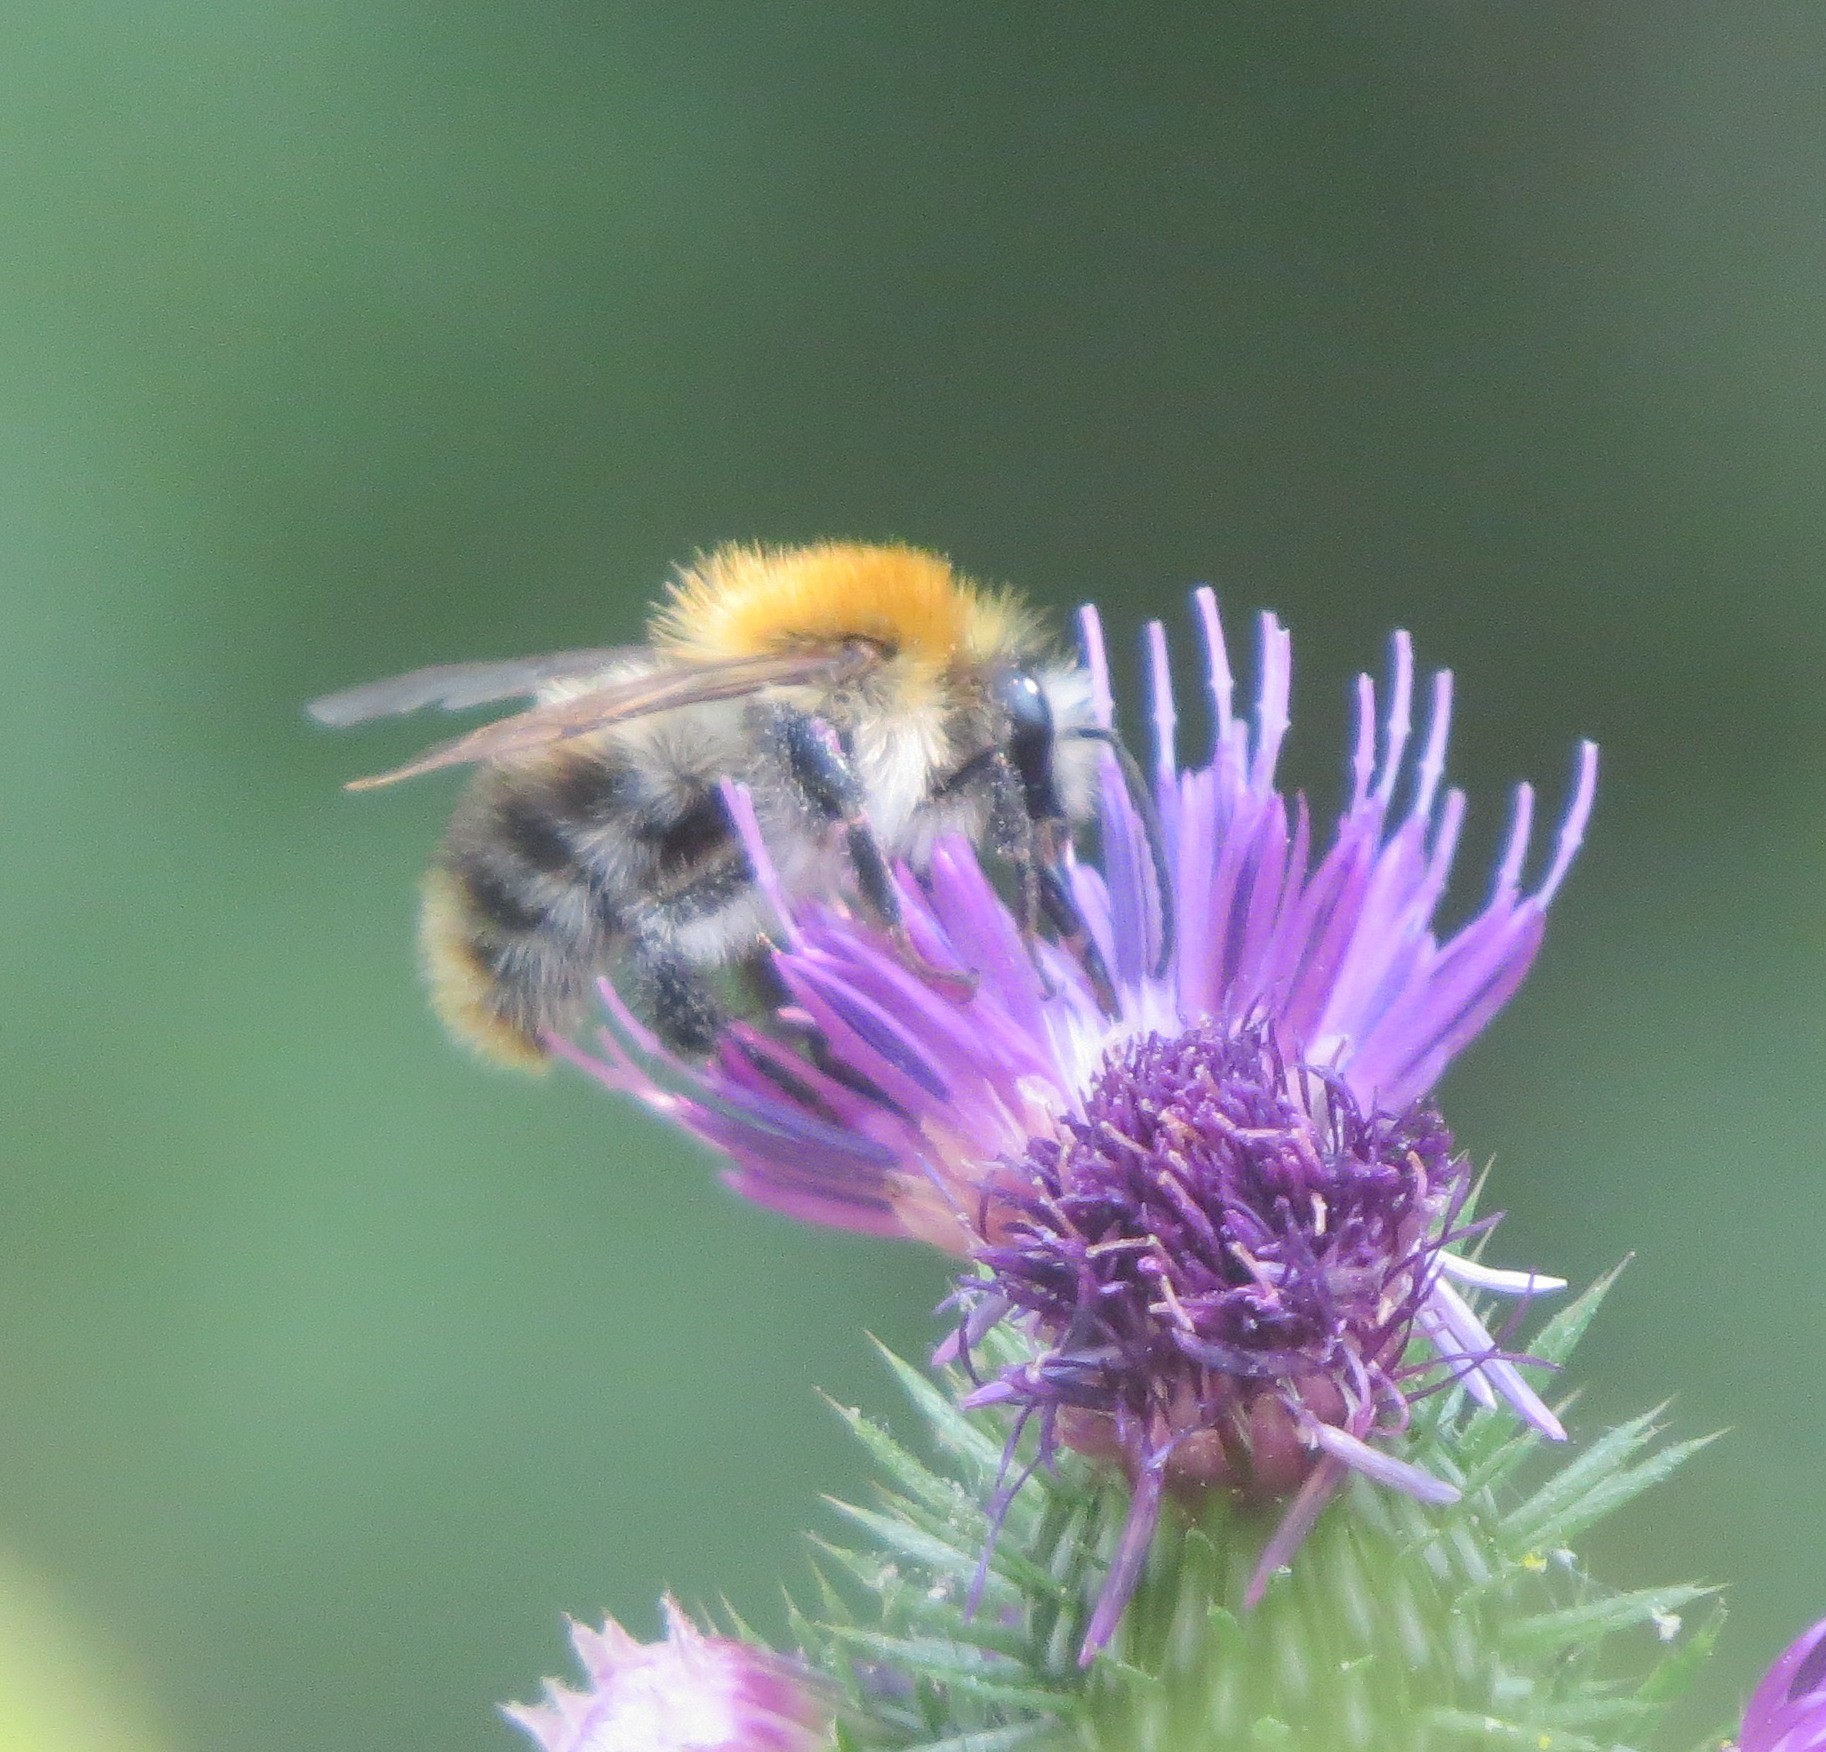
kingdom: Animalia
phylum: Arthropoda
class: Insecta
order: Hymenoptera
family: Apidae
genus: Bombus
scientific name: Bombus pascuorum
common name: Common carder bee
